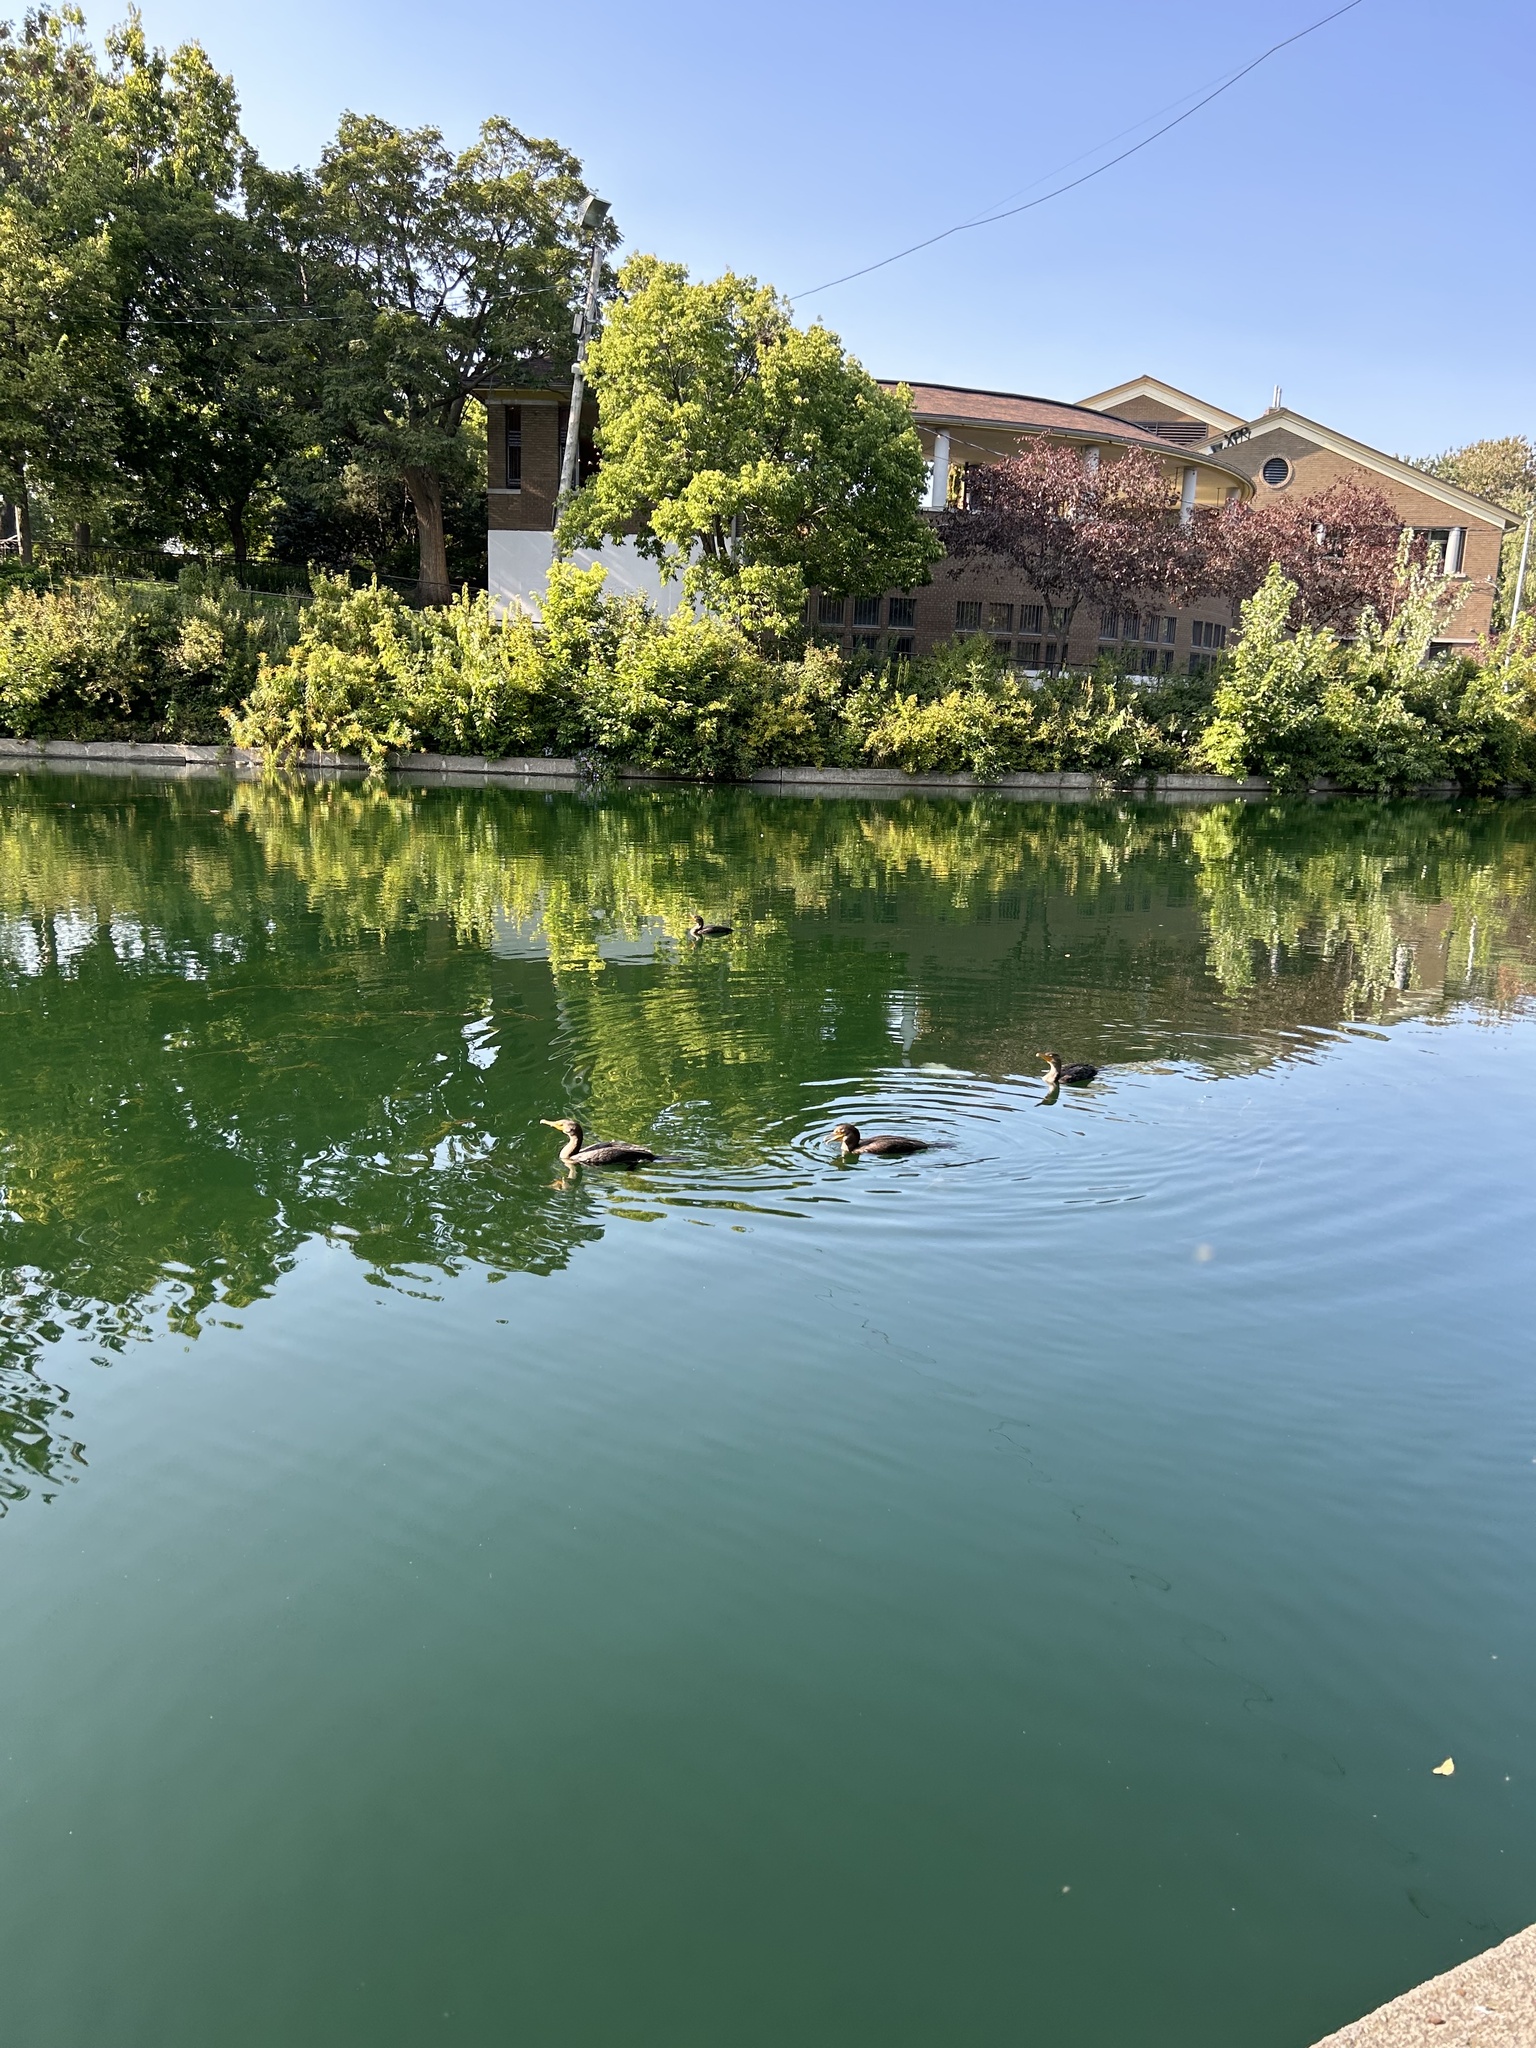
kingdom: Animalia
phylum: Chordata
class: Aves
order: Suliformes
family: Phalacrocoracidae
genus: Phalacrocorax
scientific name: Phalacrocorax auritus
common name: Double-crested cormorant
